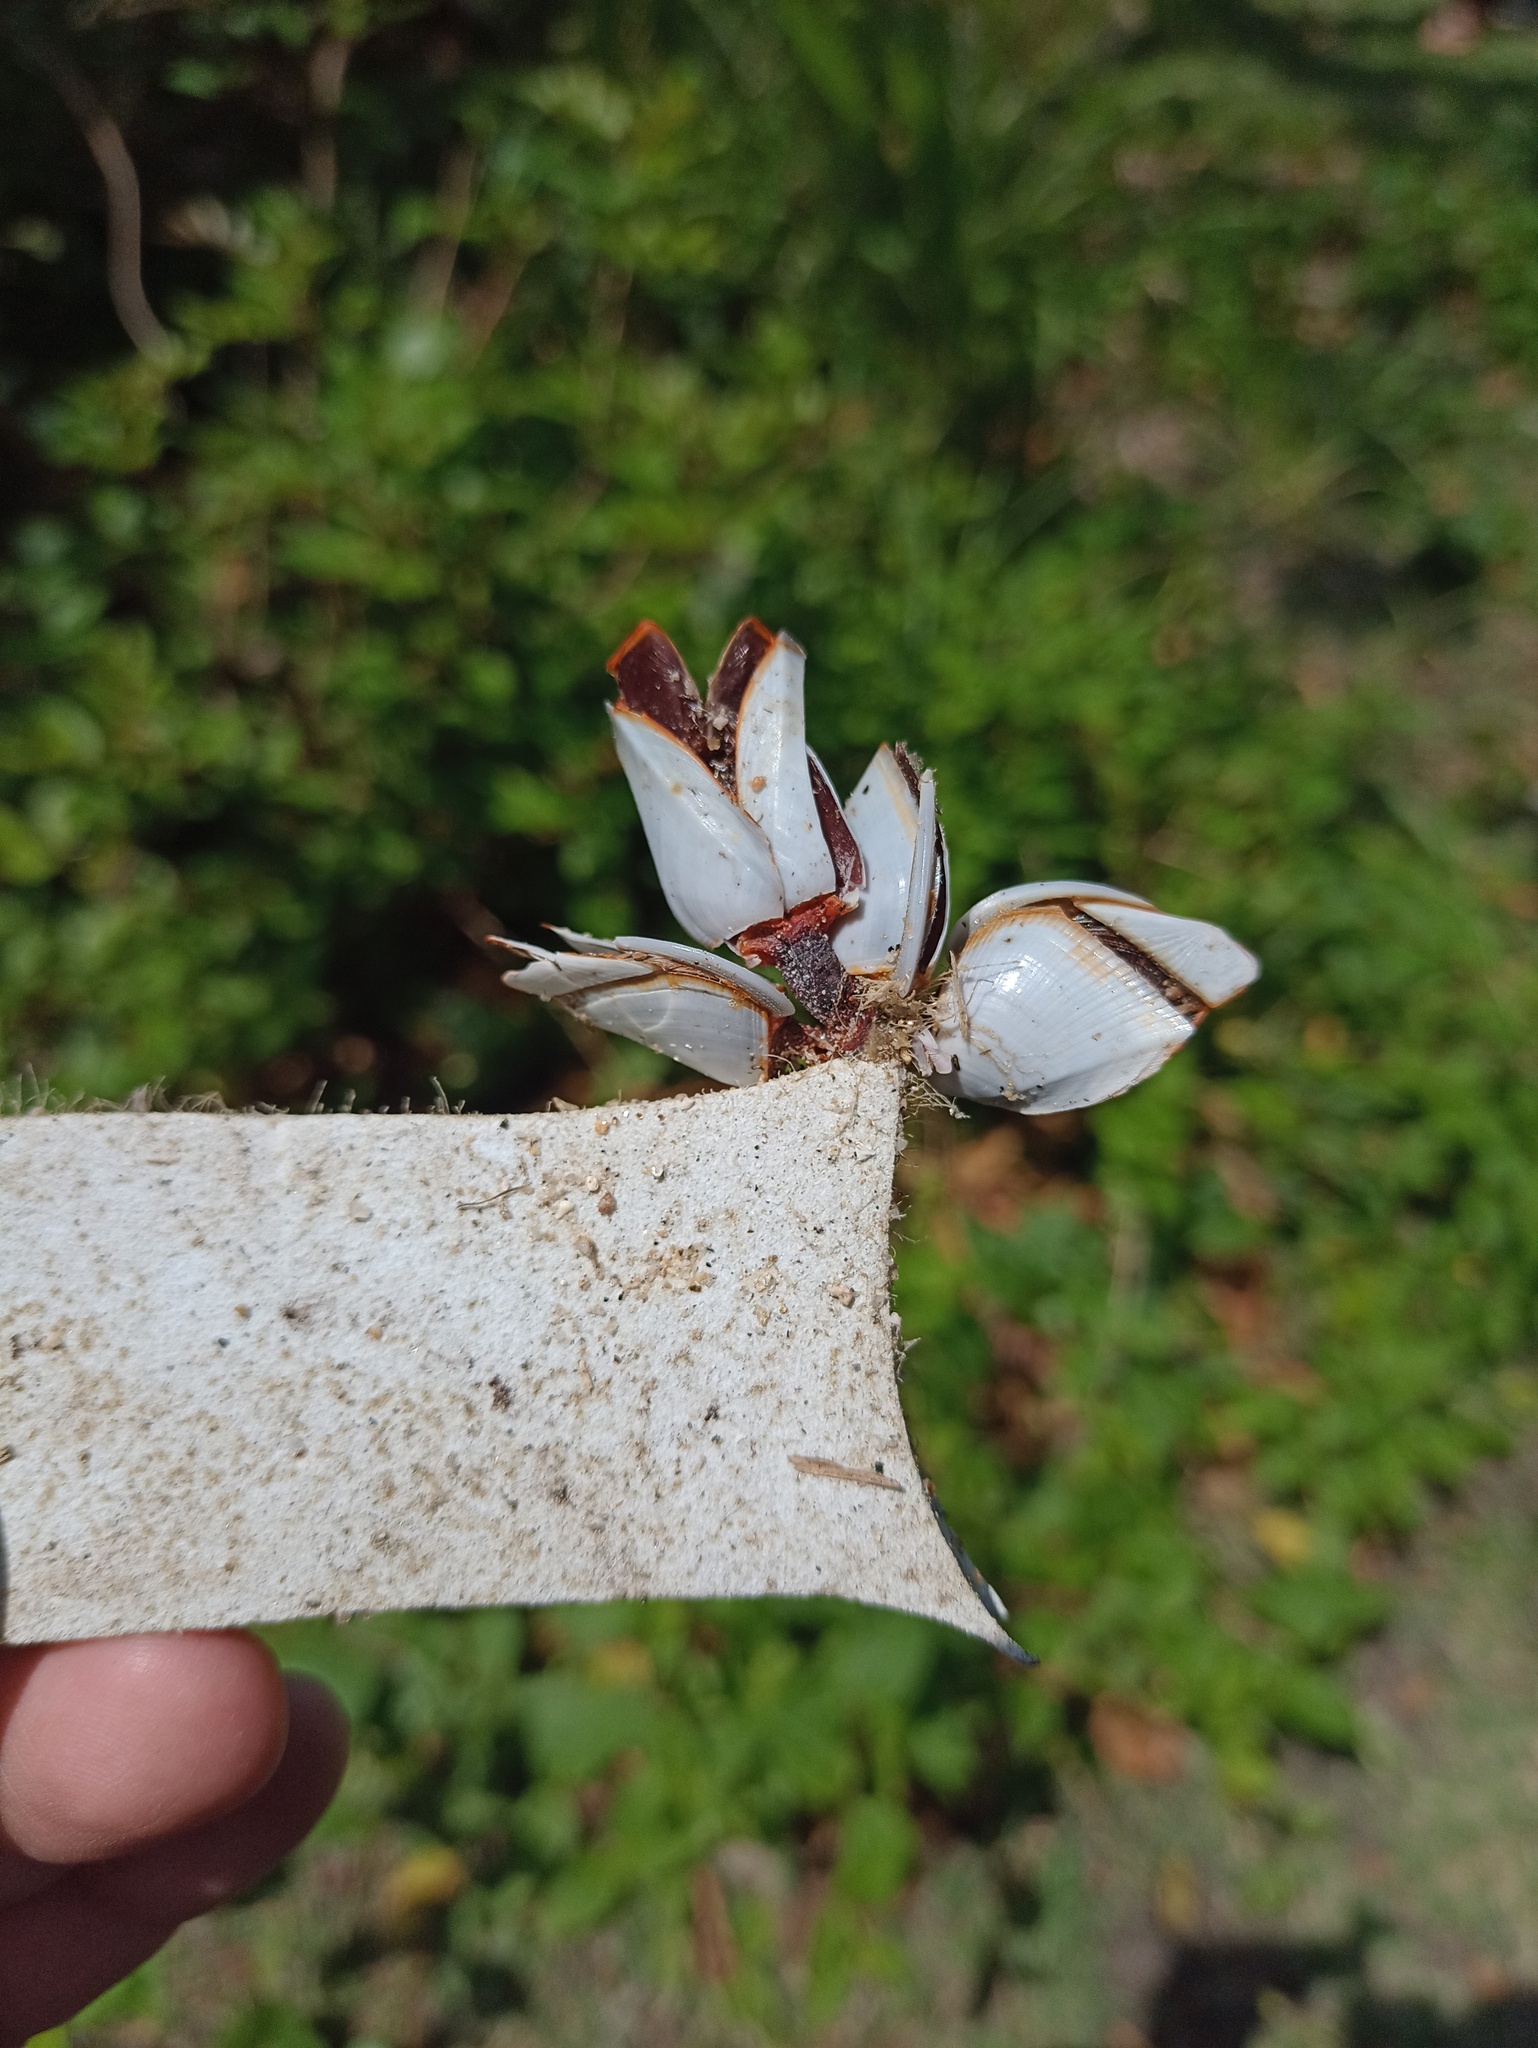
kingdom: Animalia
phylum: Arthropoda
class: Maxillopoda
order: Pedunculata
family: Lepadidae
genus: Lepas
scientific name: Lepas anserifera
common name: Goose barnacle
